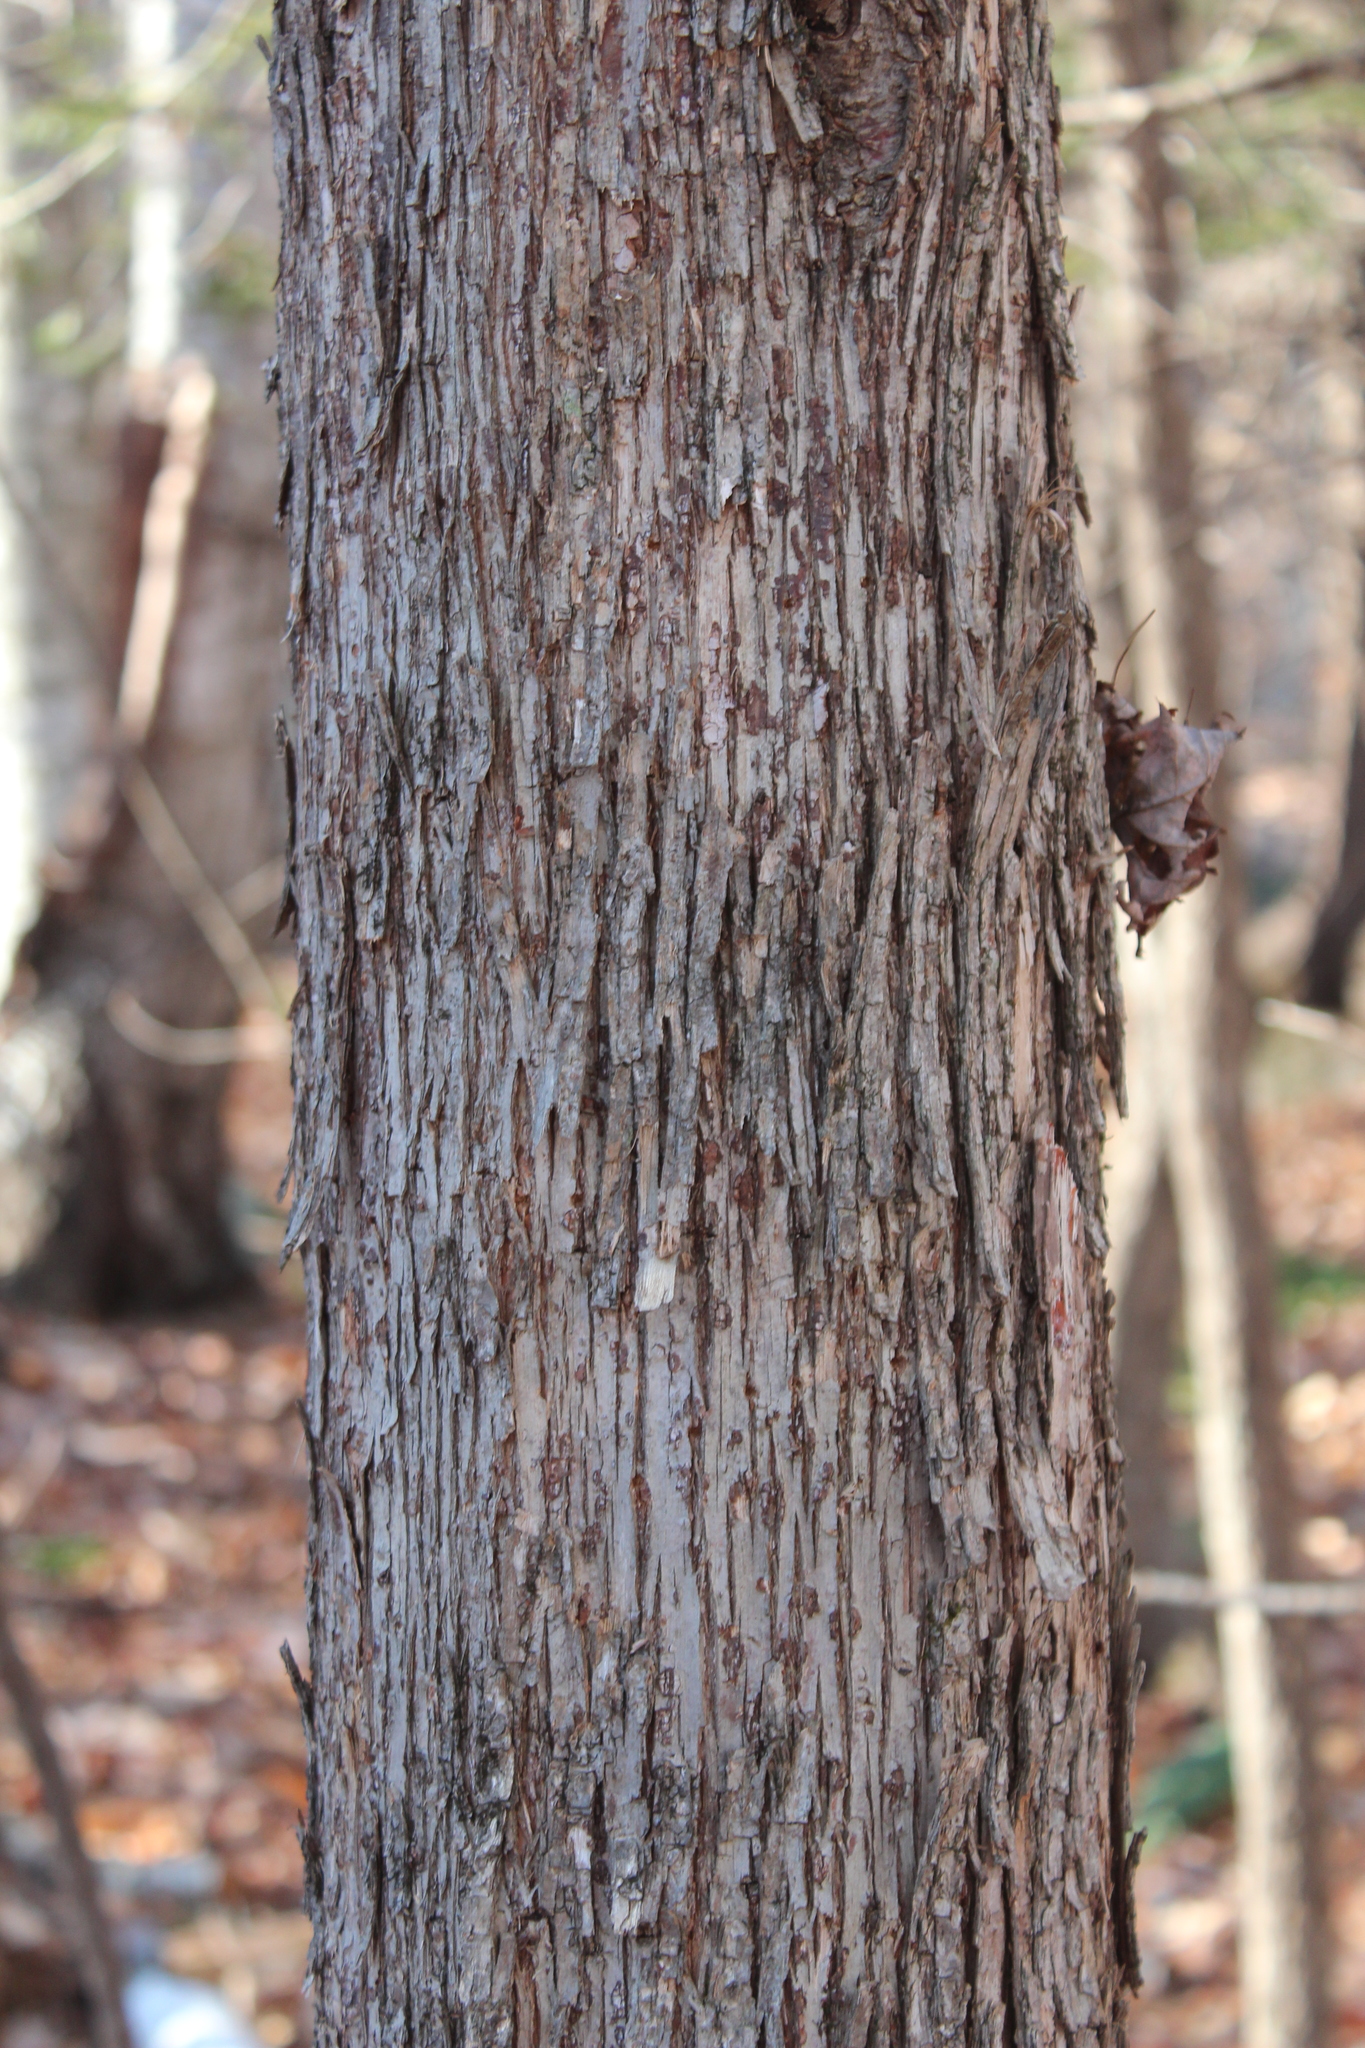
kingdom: Plantae
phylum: Tracheophyta
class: Magnoliopsida
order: Fagales
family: Betulaceae
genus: Ostrya
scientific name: Ostrya virginiana
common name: Ironwood
